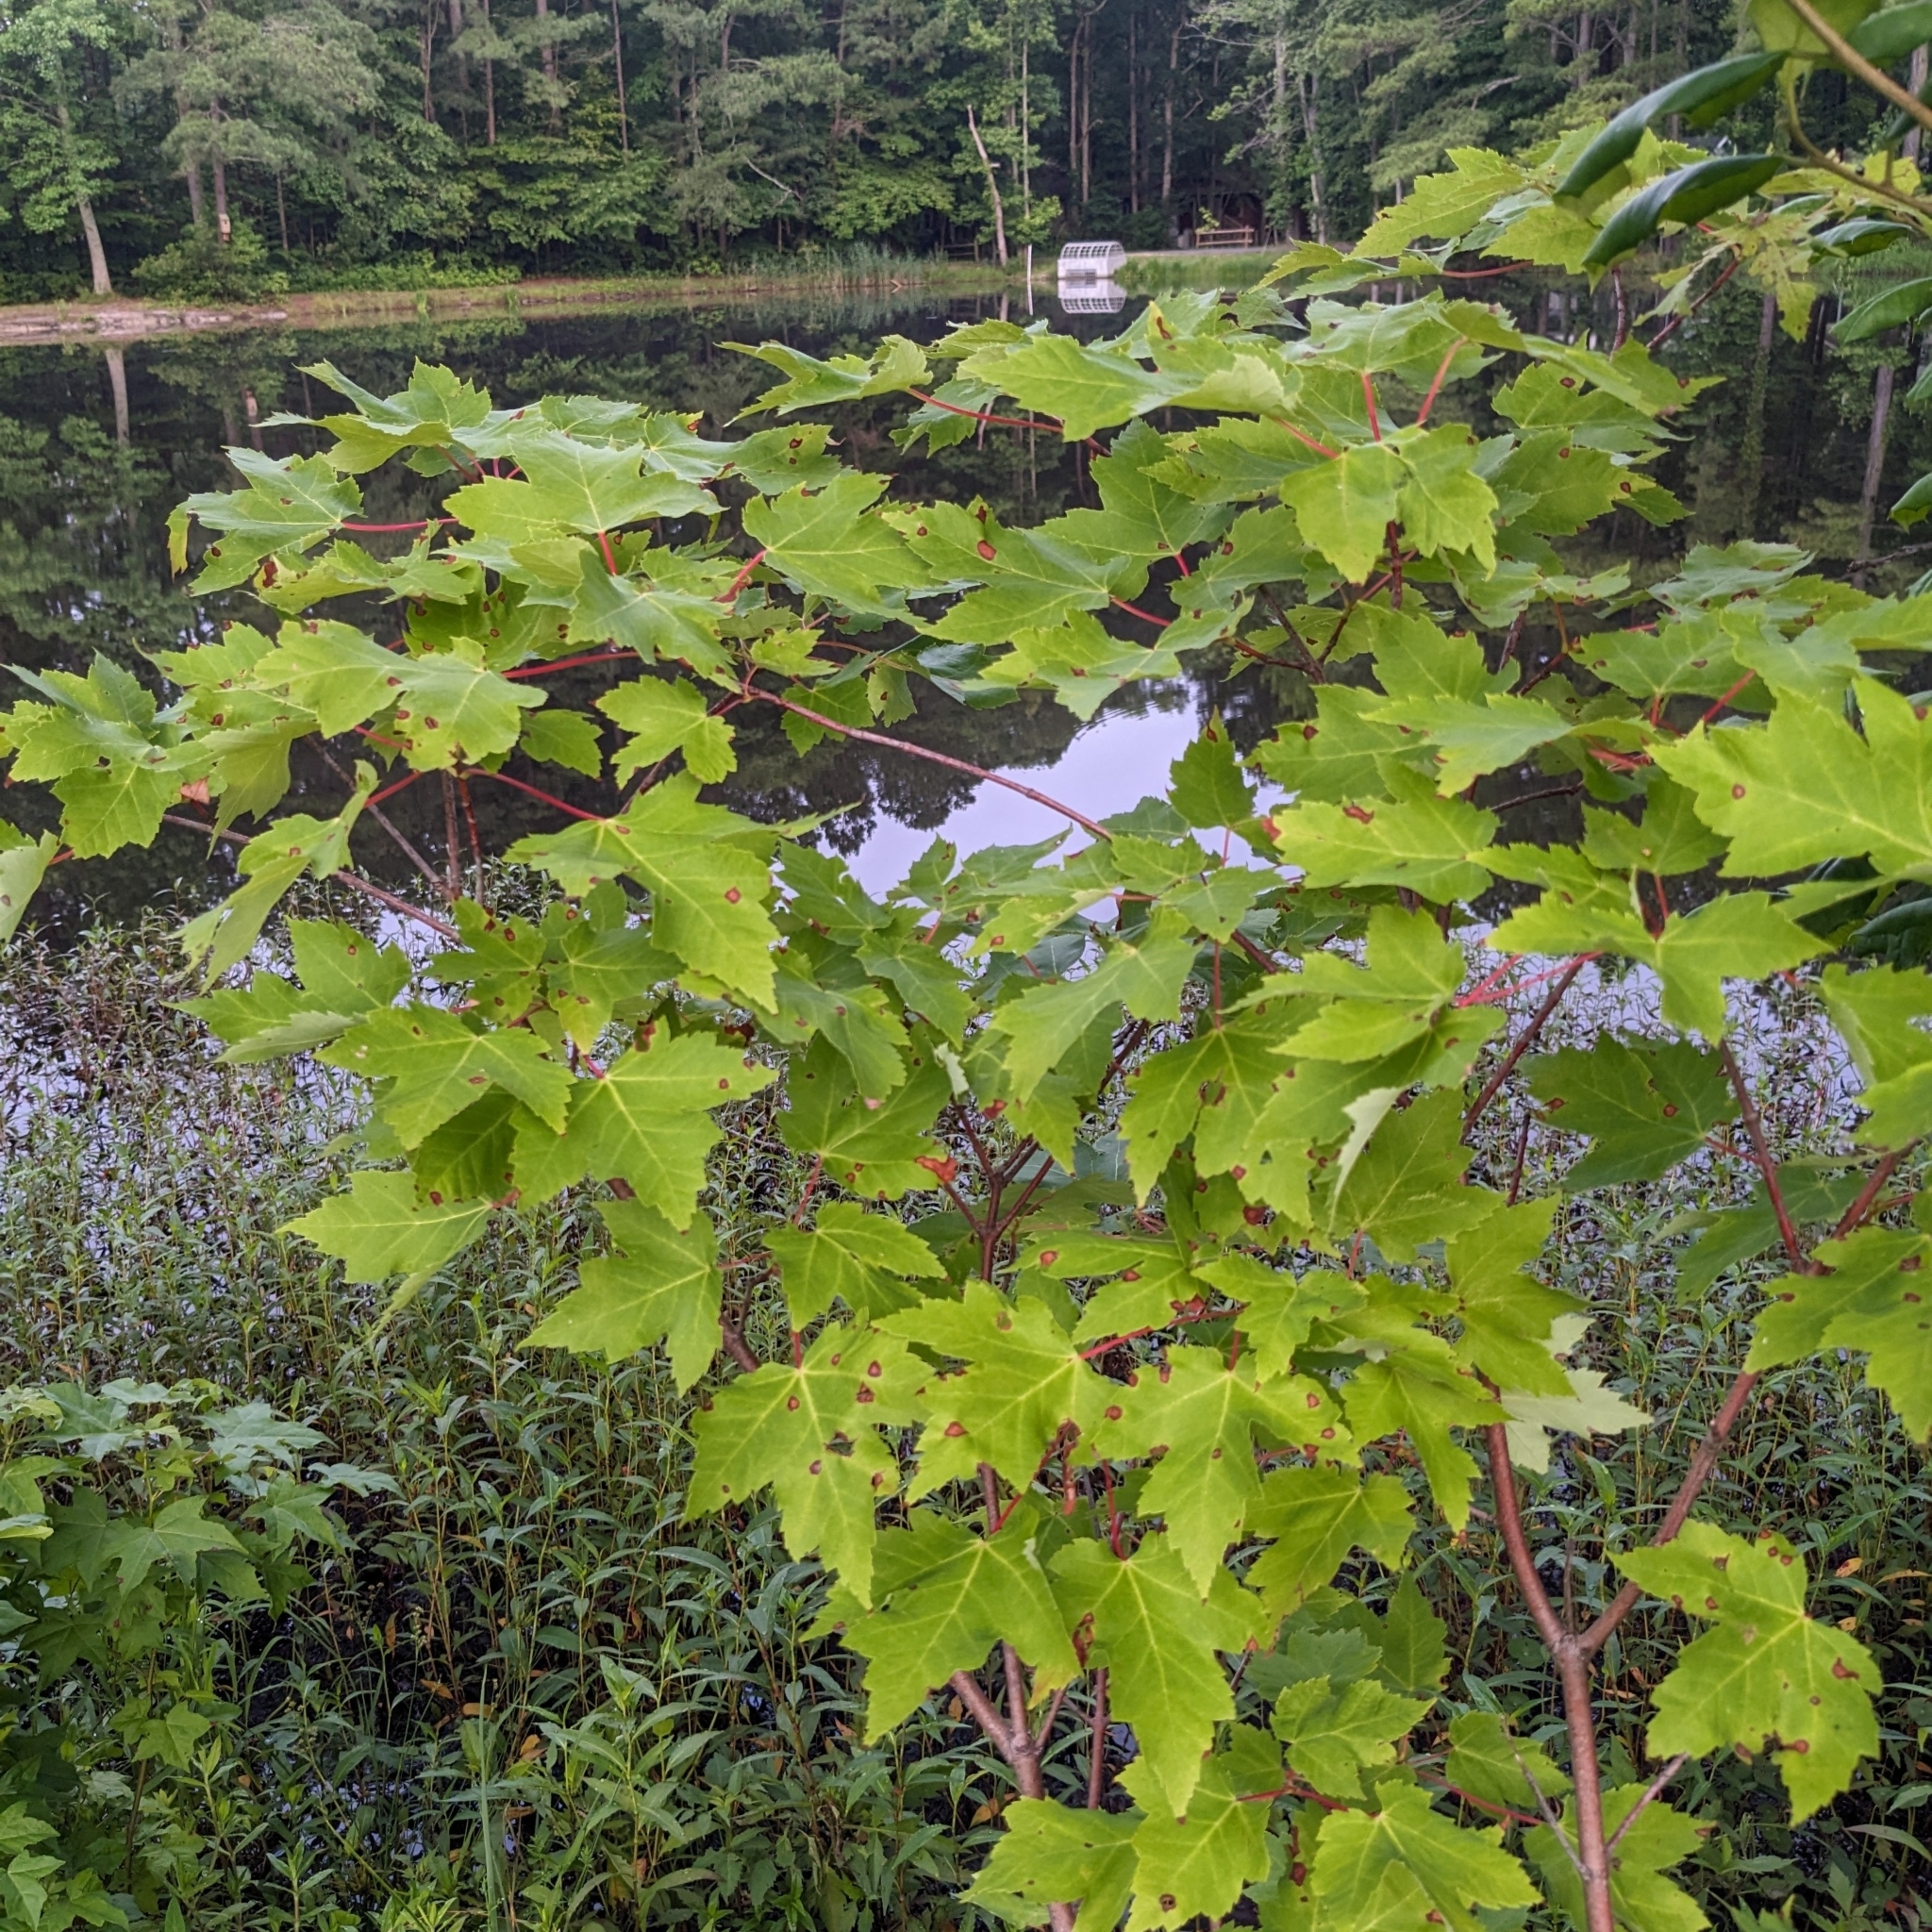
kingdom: Plantae
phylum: Tracheophyta
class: Magnoliopsida
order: Sapindales
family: Sapindaceae
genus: Acer
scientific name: Acer rubrum
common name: Red maple
